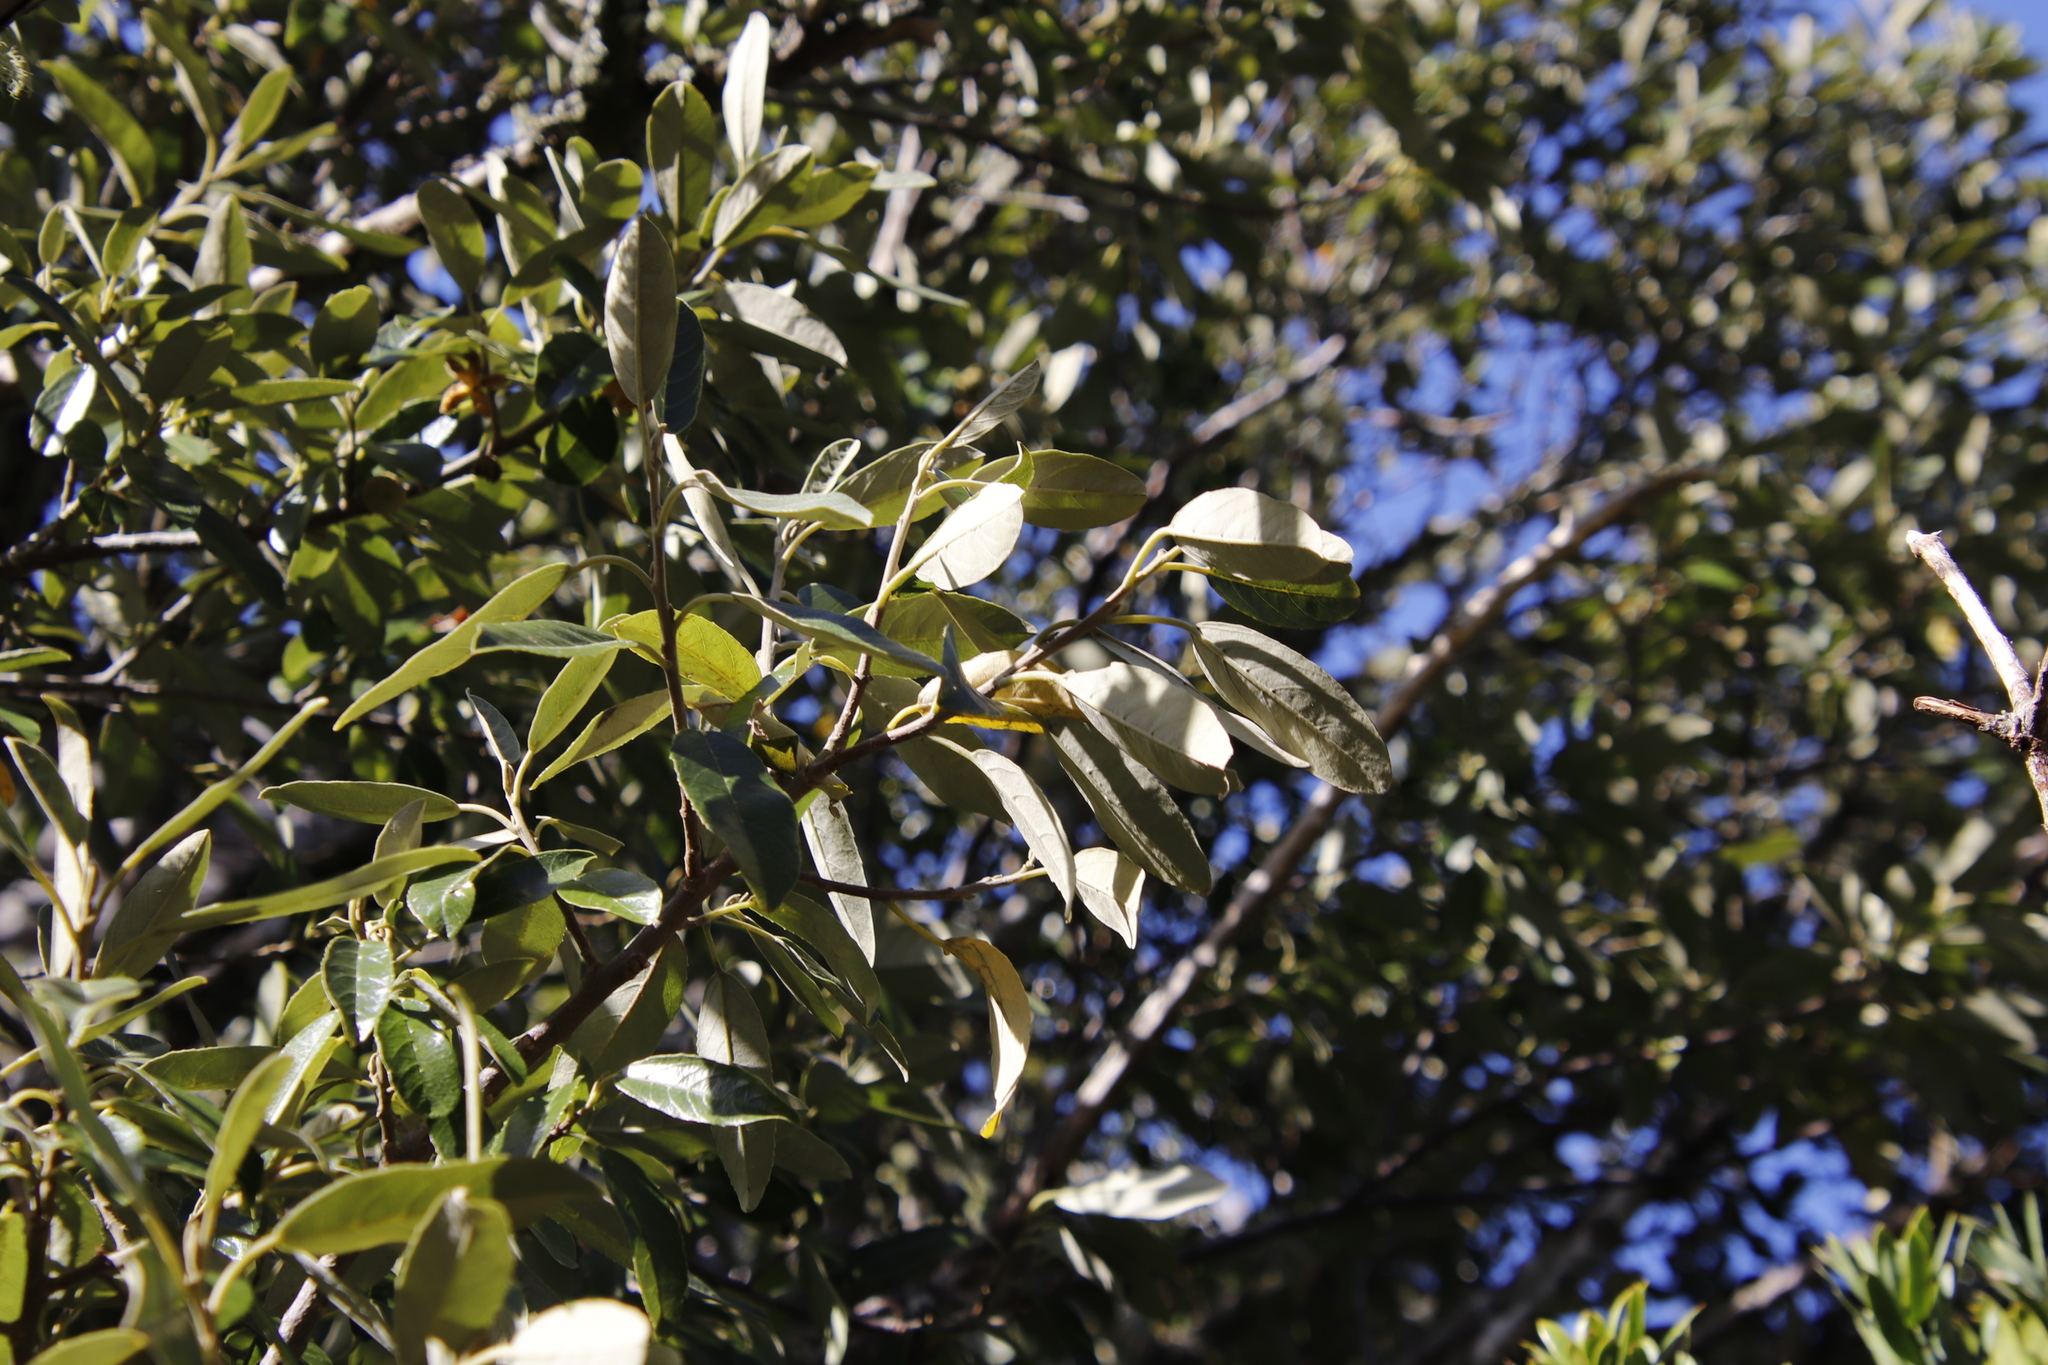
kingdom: Plantae
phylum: Tracheophyta
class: Magnoliopsida
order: Malpighiales
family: Achariaceae
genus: Kiggelaria
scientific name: Kiggelaria africana
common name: Wild peach
